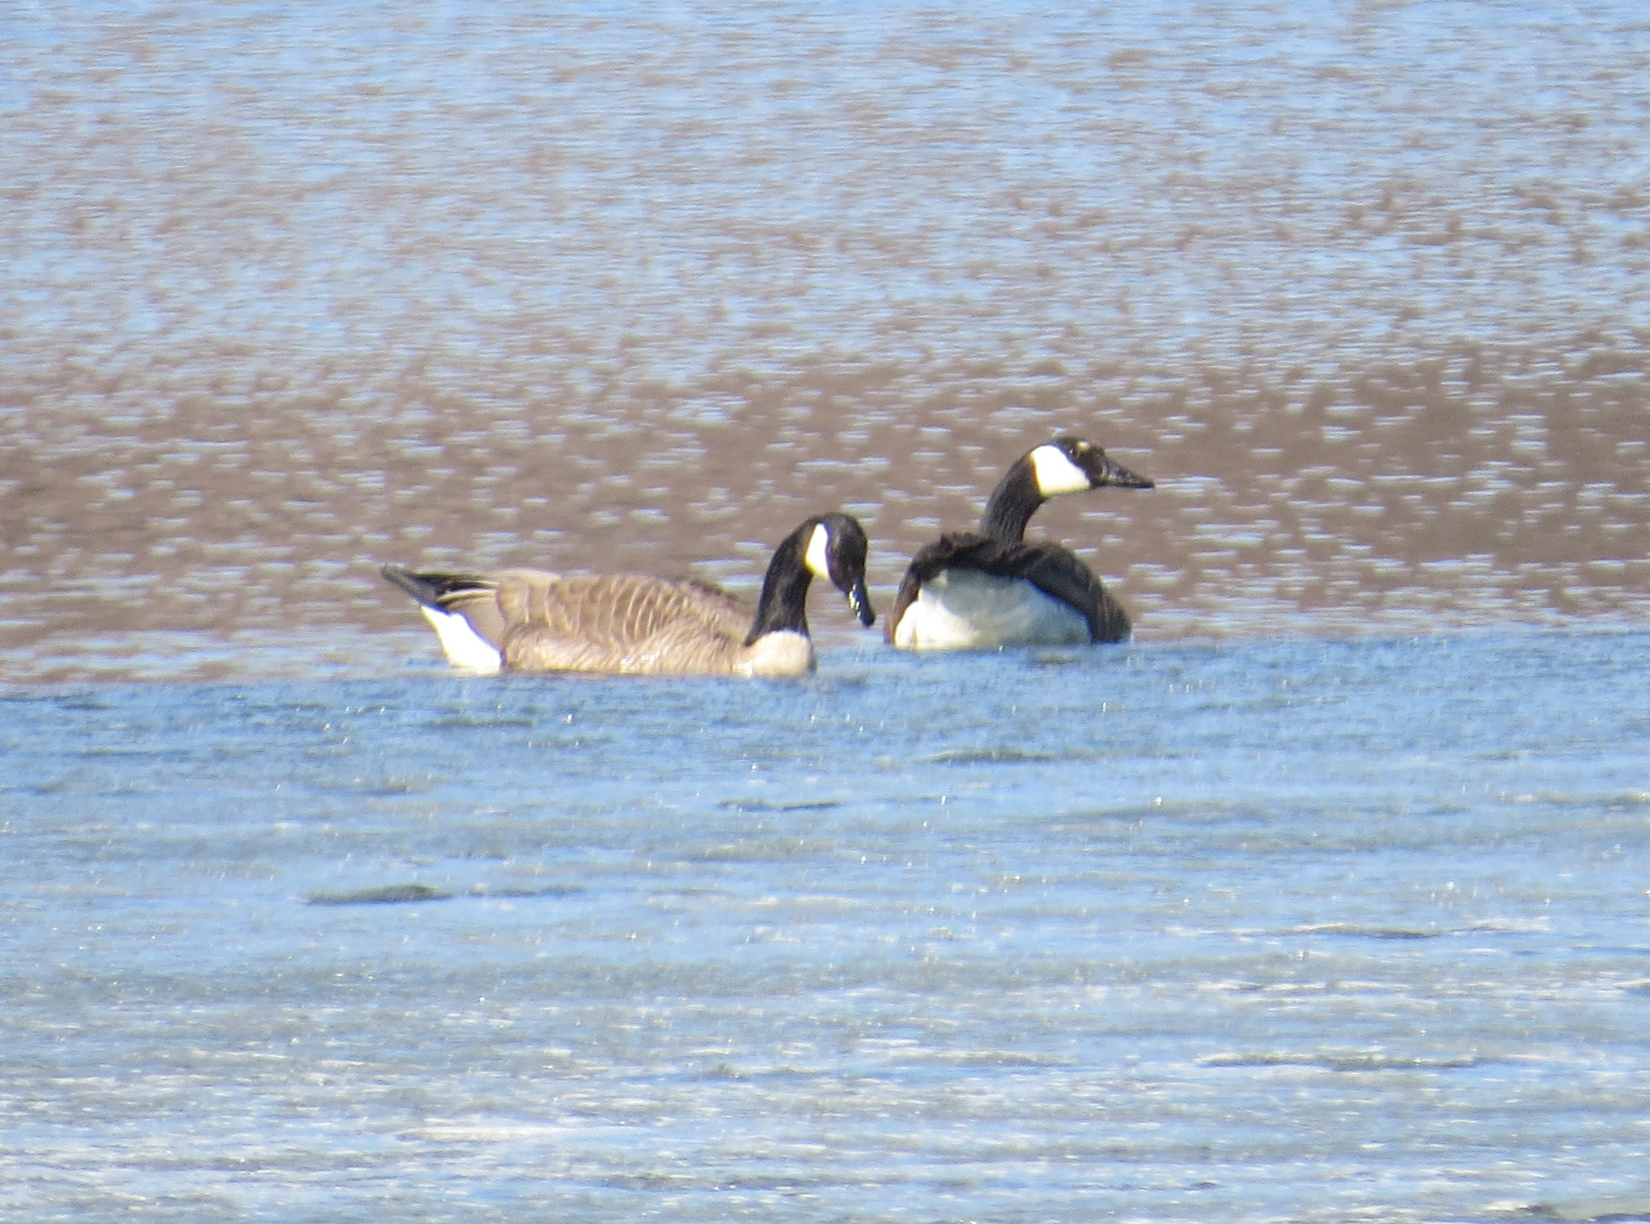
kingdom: Animalia
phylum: Chordata
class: Aves
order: Anseriformes
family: Anatidae
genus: Branta
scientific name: Branta canadensis
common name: Canada goose
